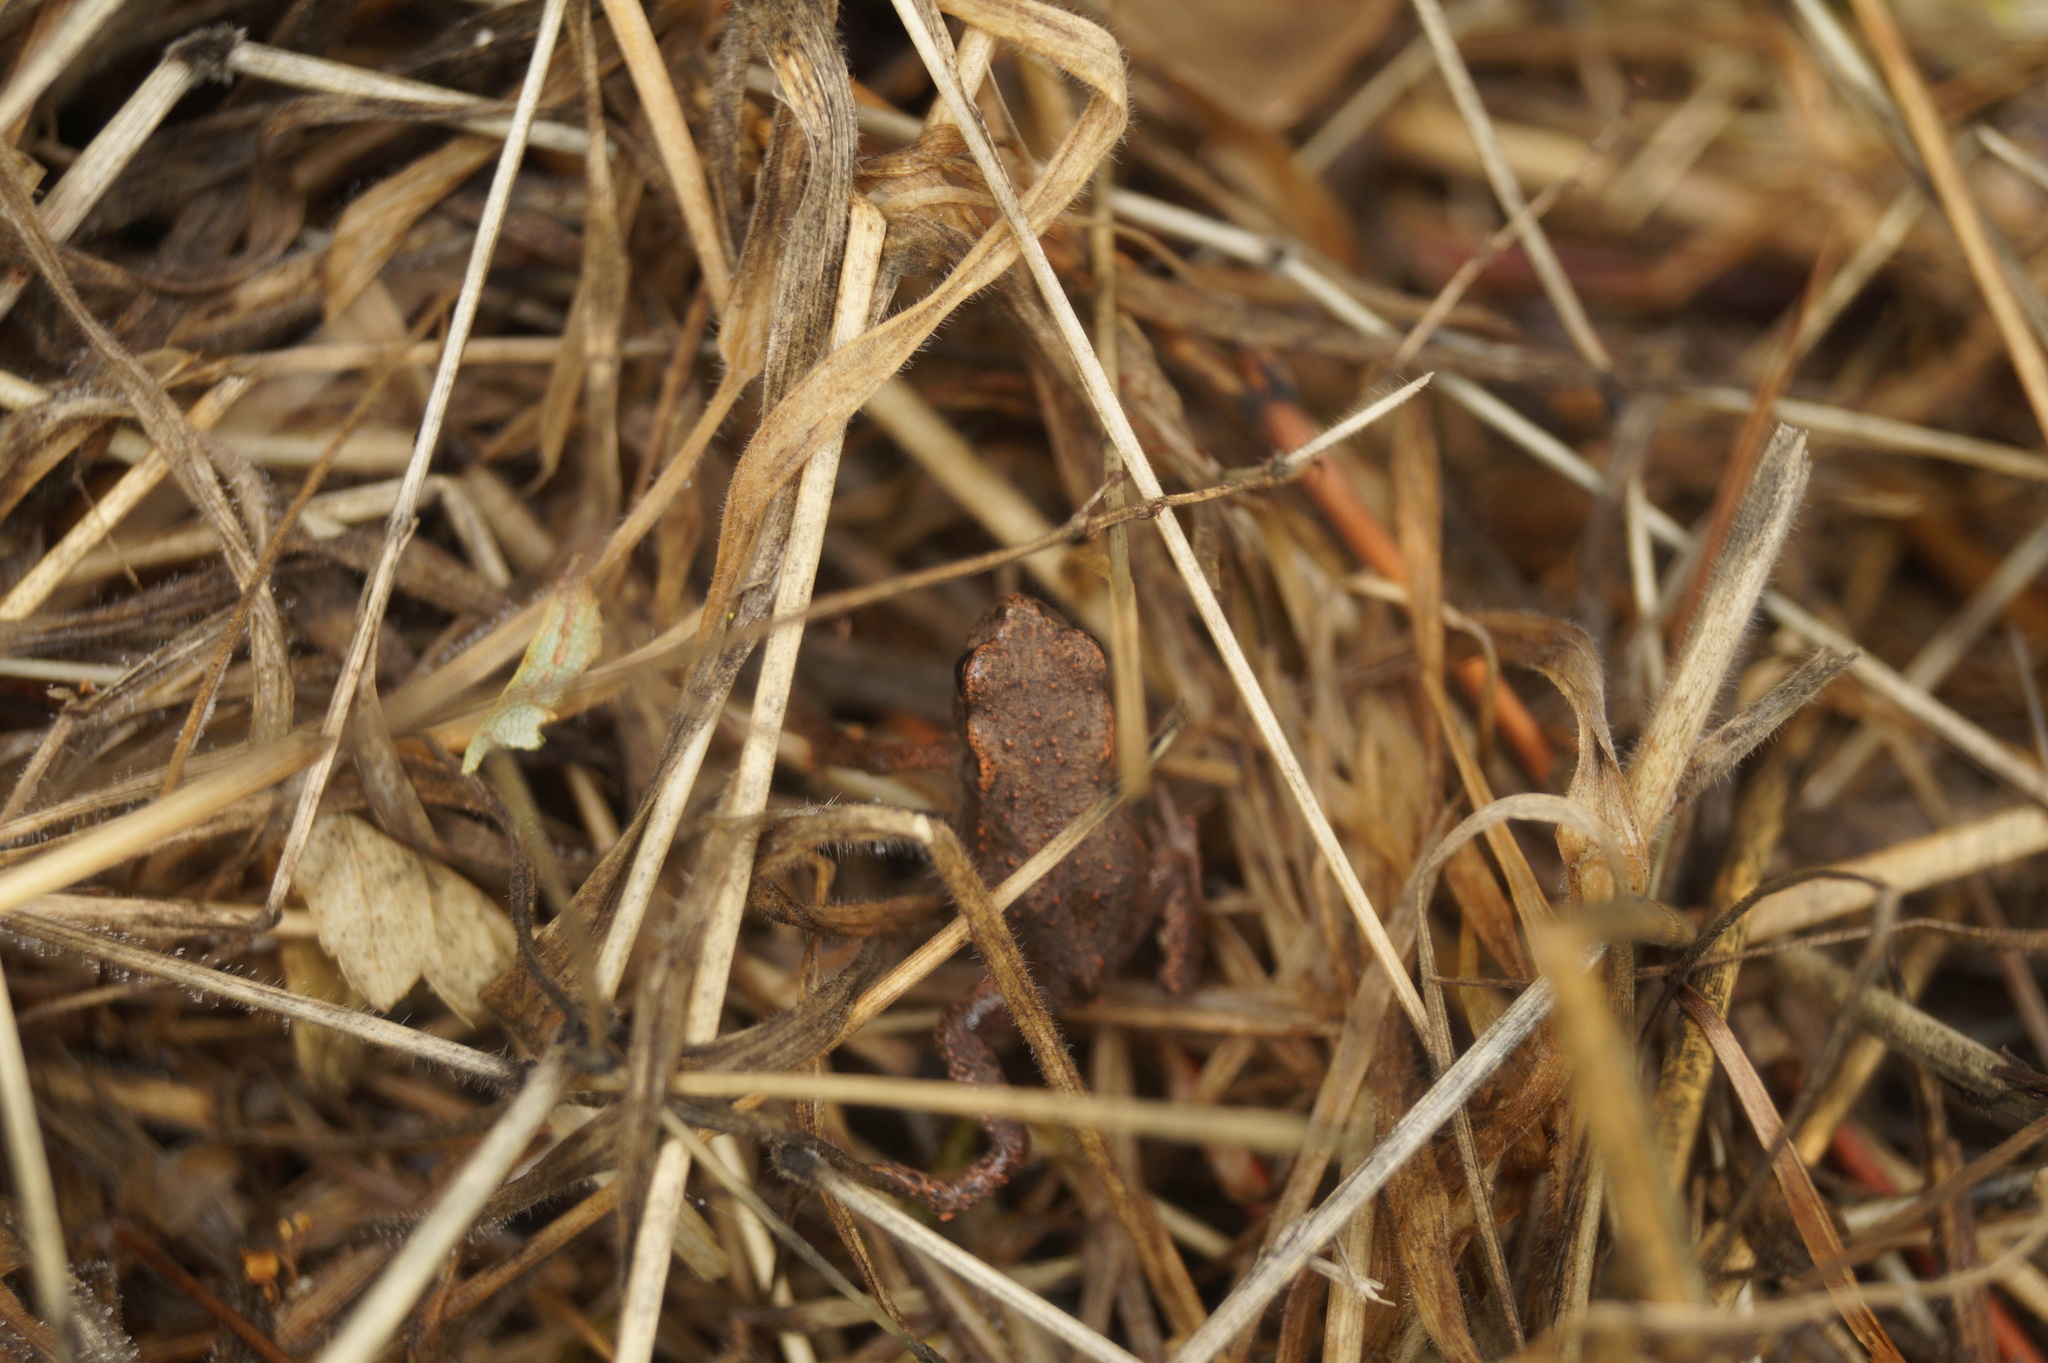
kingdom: Animalia
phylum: Chordata
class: Amphibia
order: Anura
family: Bufonidae
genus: Bufo
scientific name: Bufo bufo
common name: Common toad
